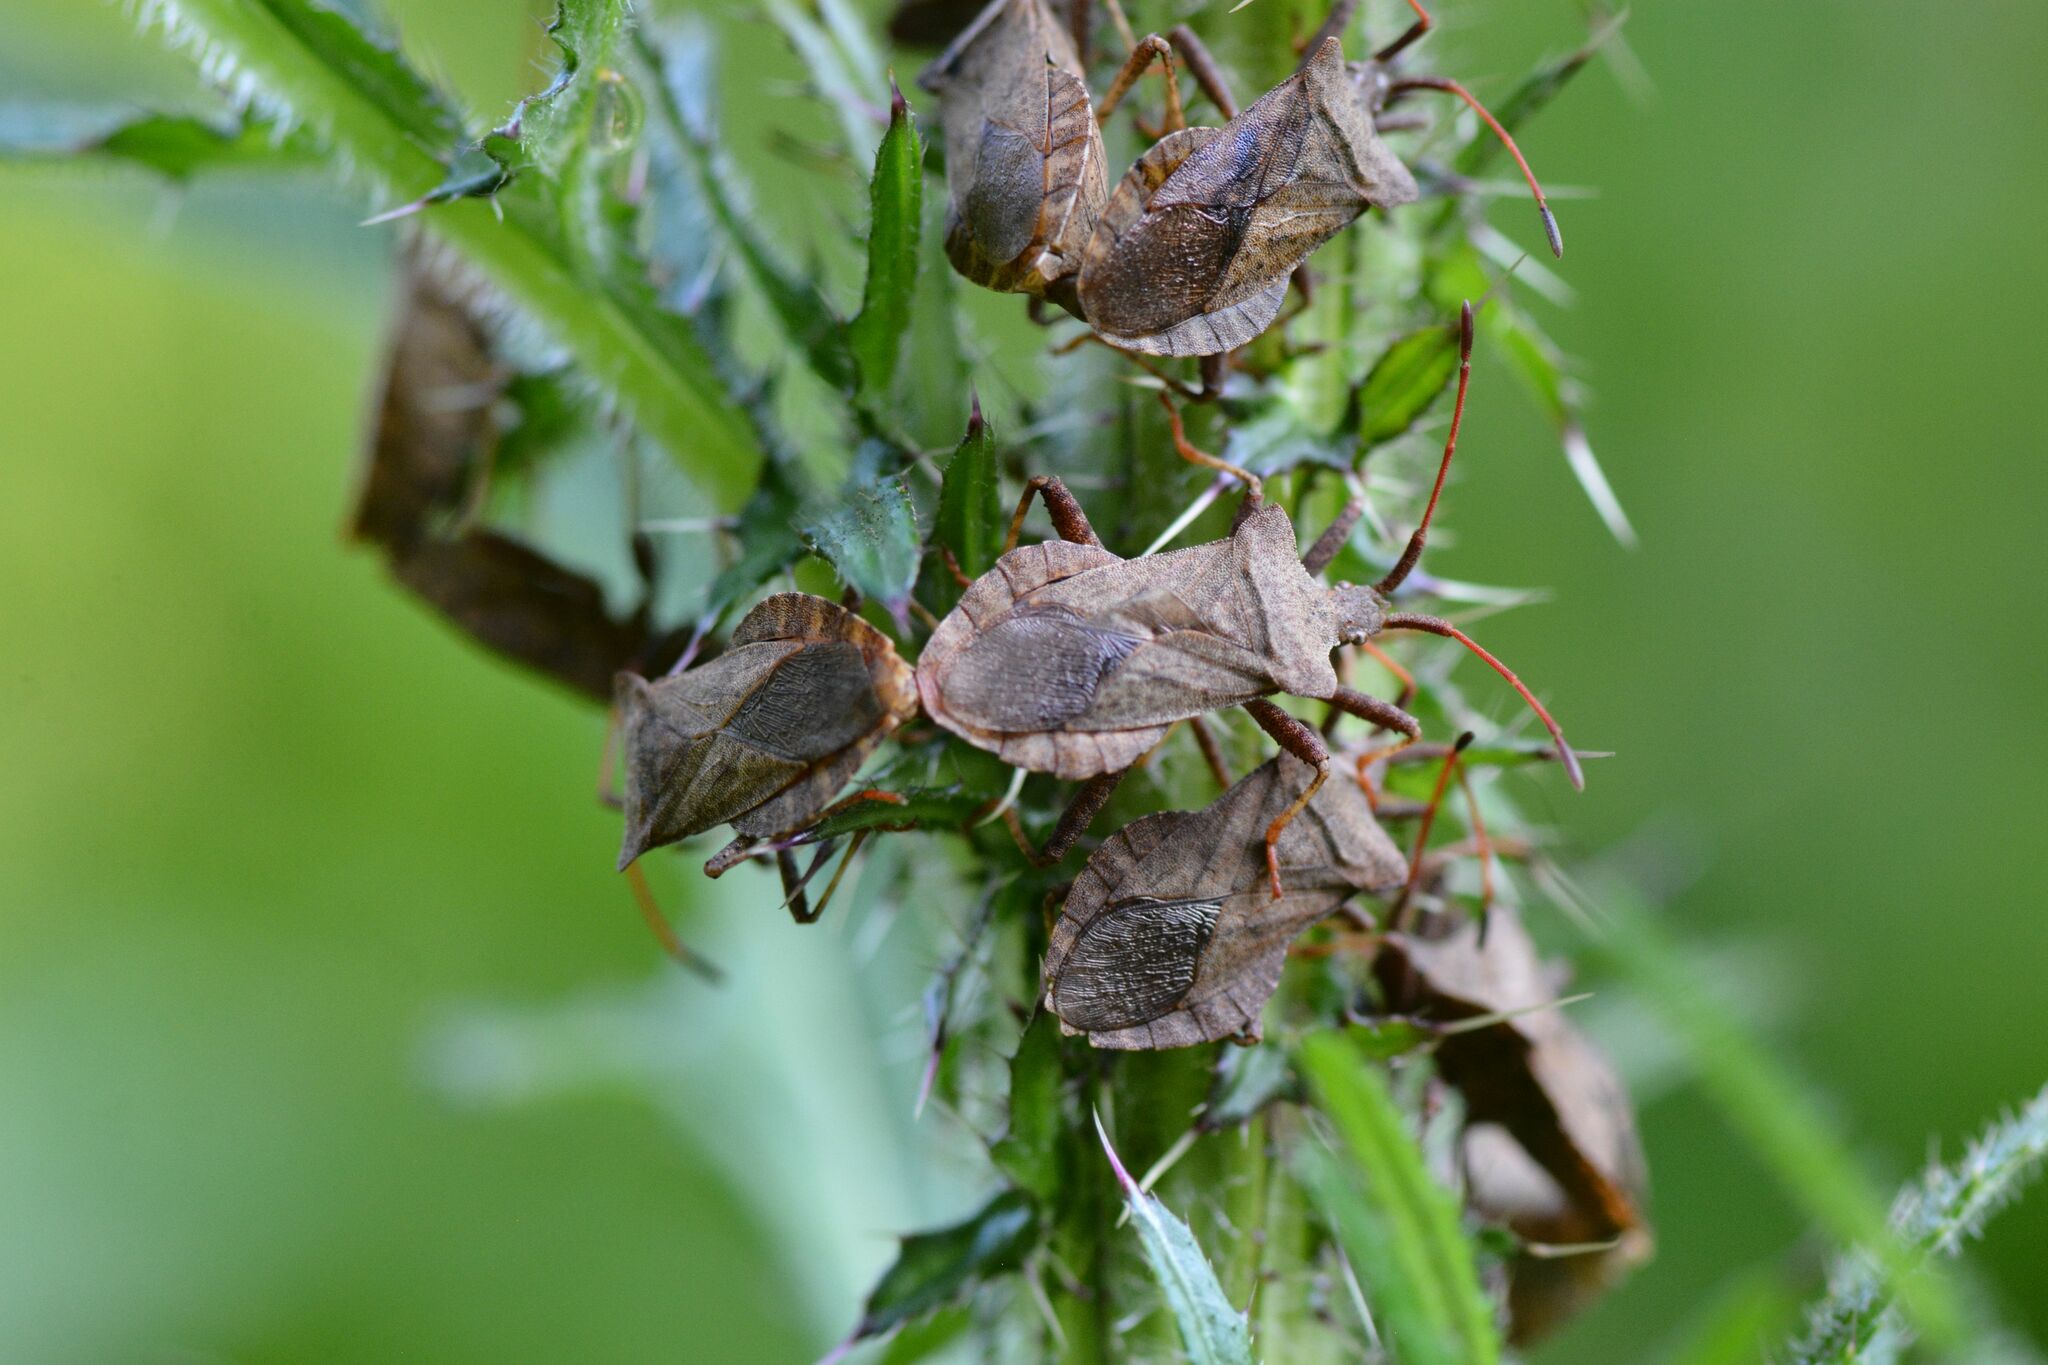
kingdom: Animalia
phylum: Arthropoda
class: Insecta
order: Hemiptera
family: Coreidae
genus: Coreus
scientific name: Coreus marginatus
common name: Dock bug
